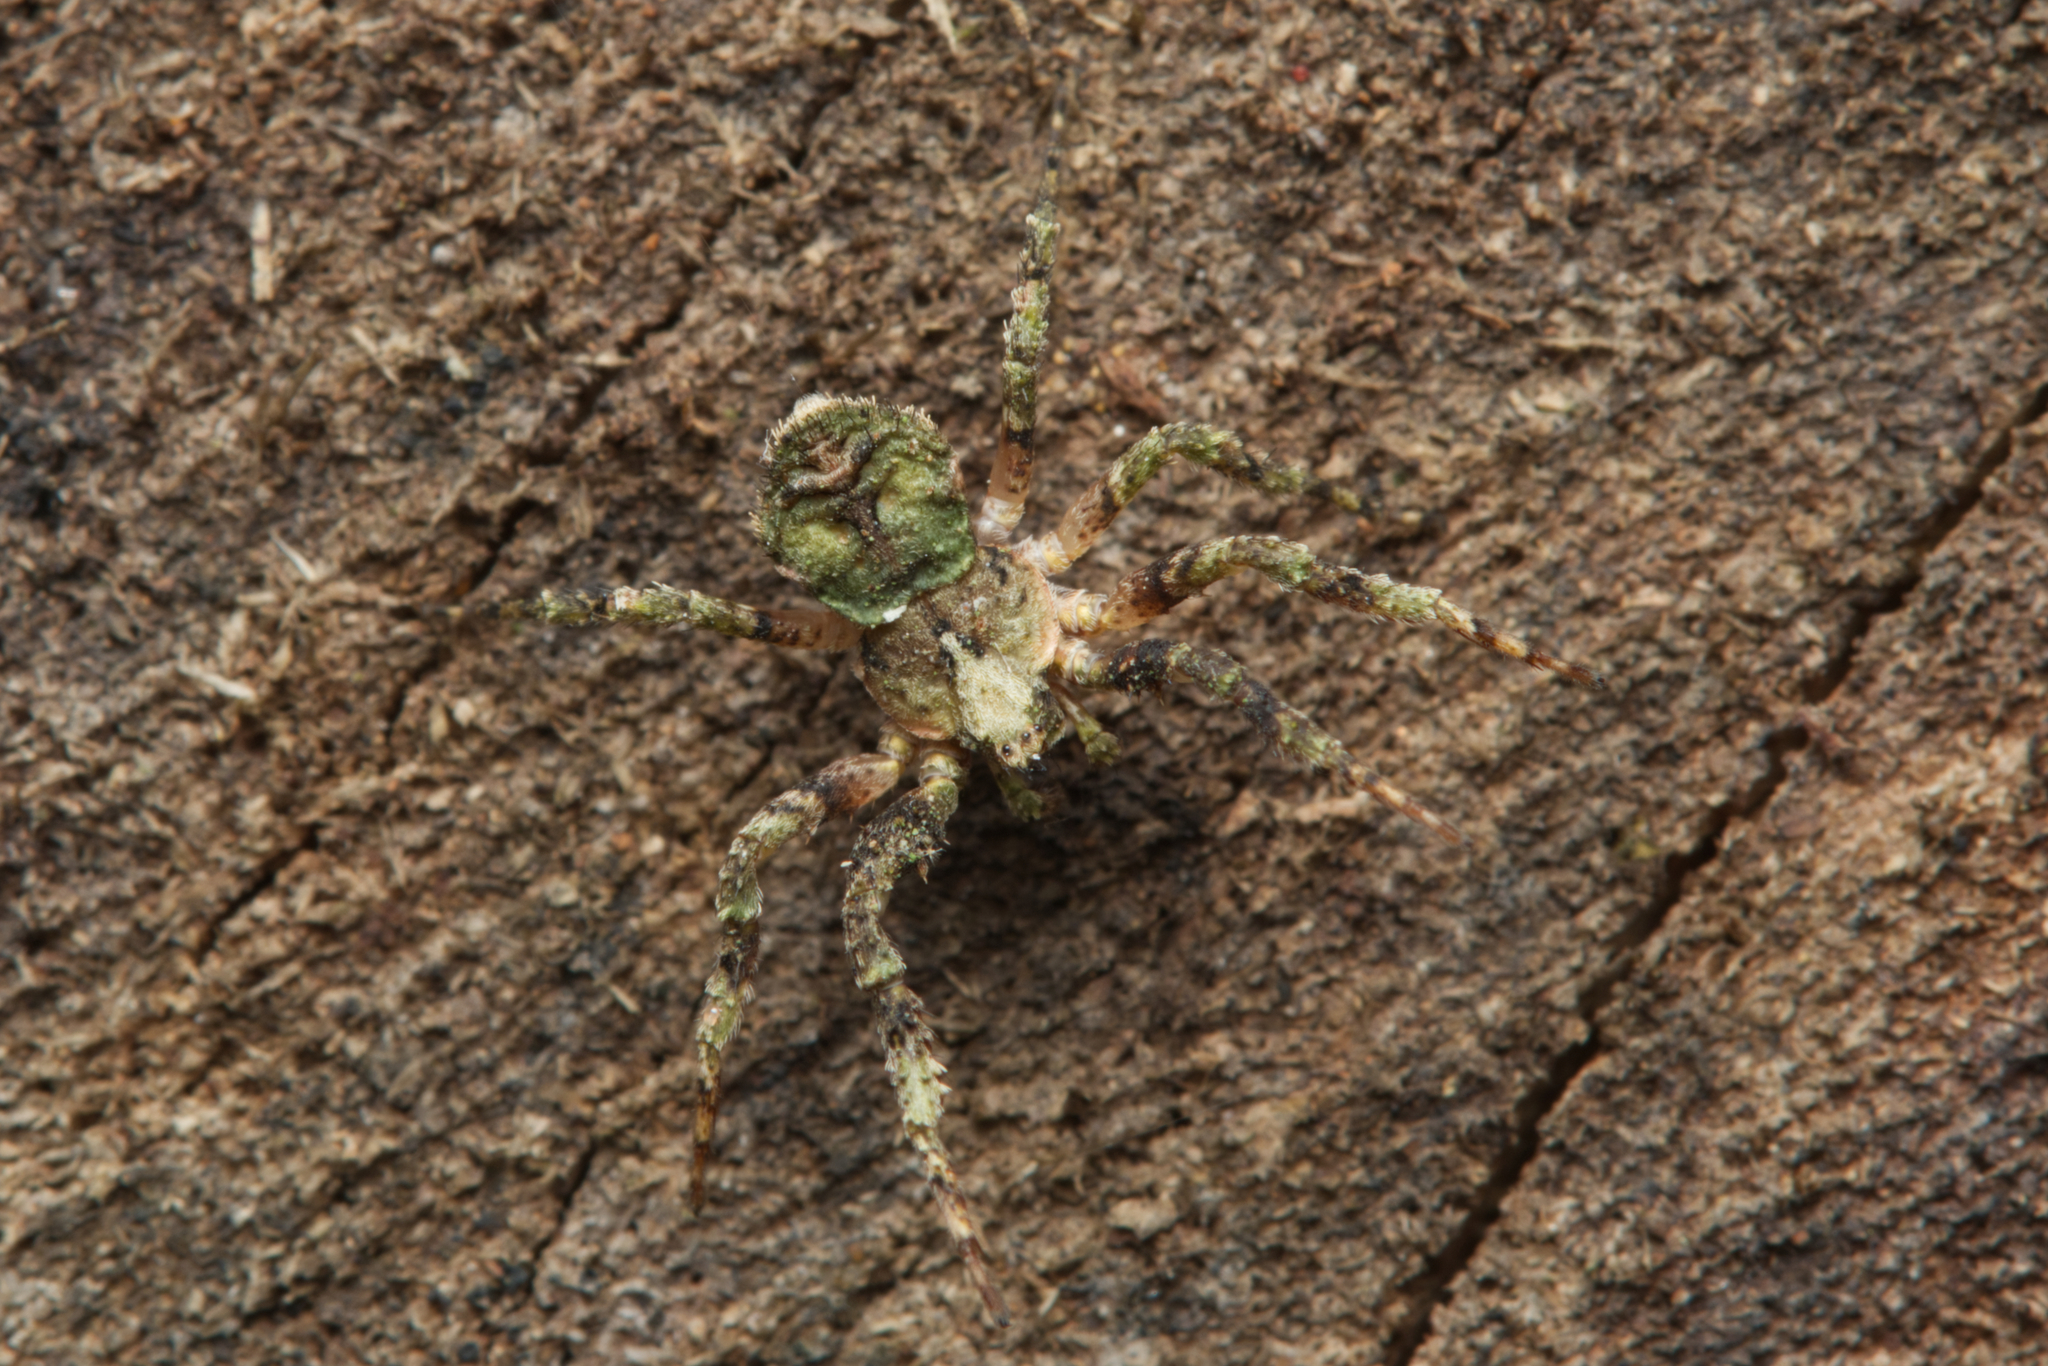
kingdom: Animalia
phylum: Arthropoda
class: Arachnida
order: Araneae
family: Thomisidae
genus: Stephanopis
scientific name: Stephanopis carcinoides
